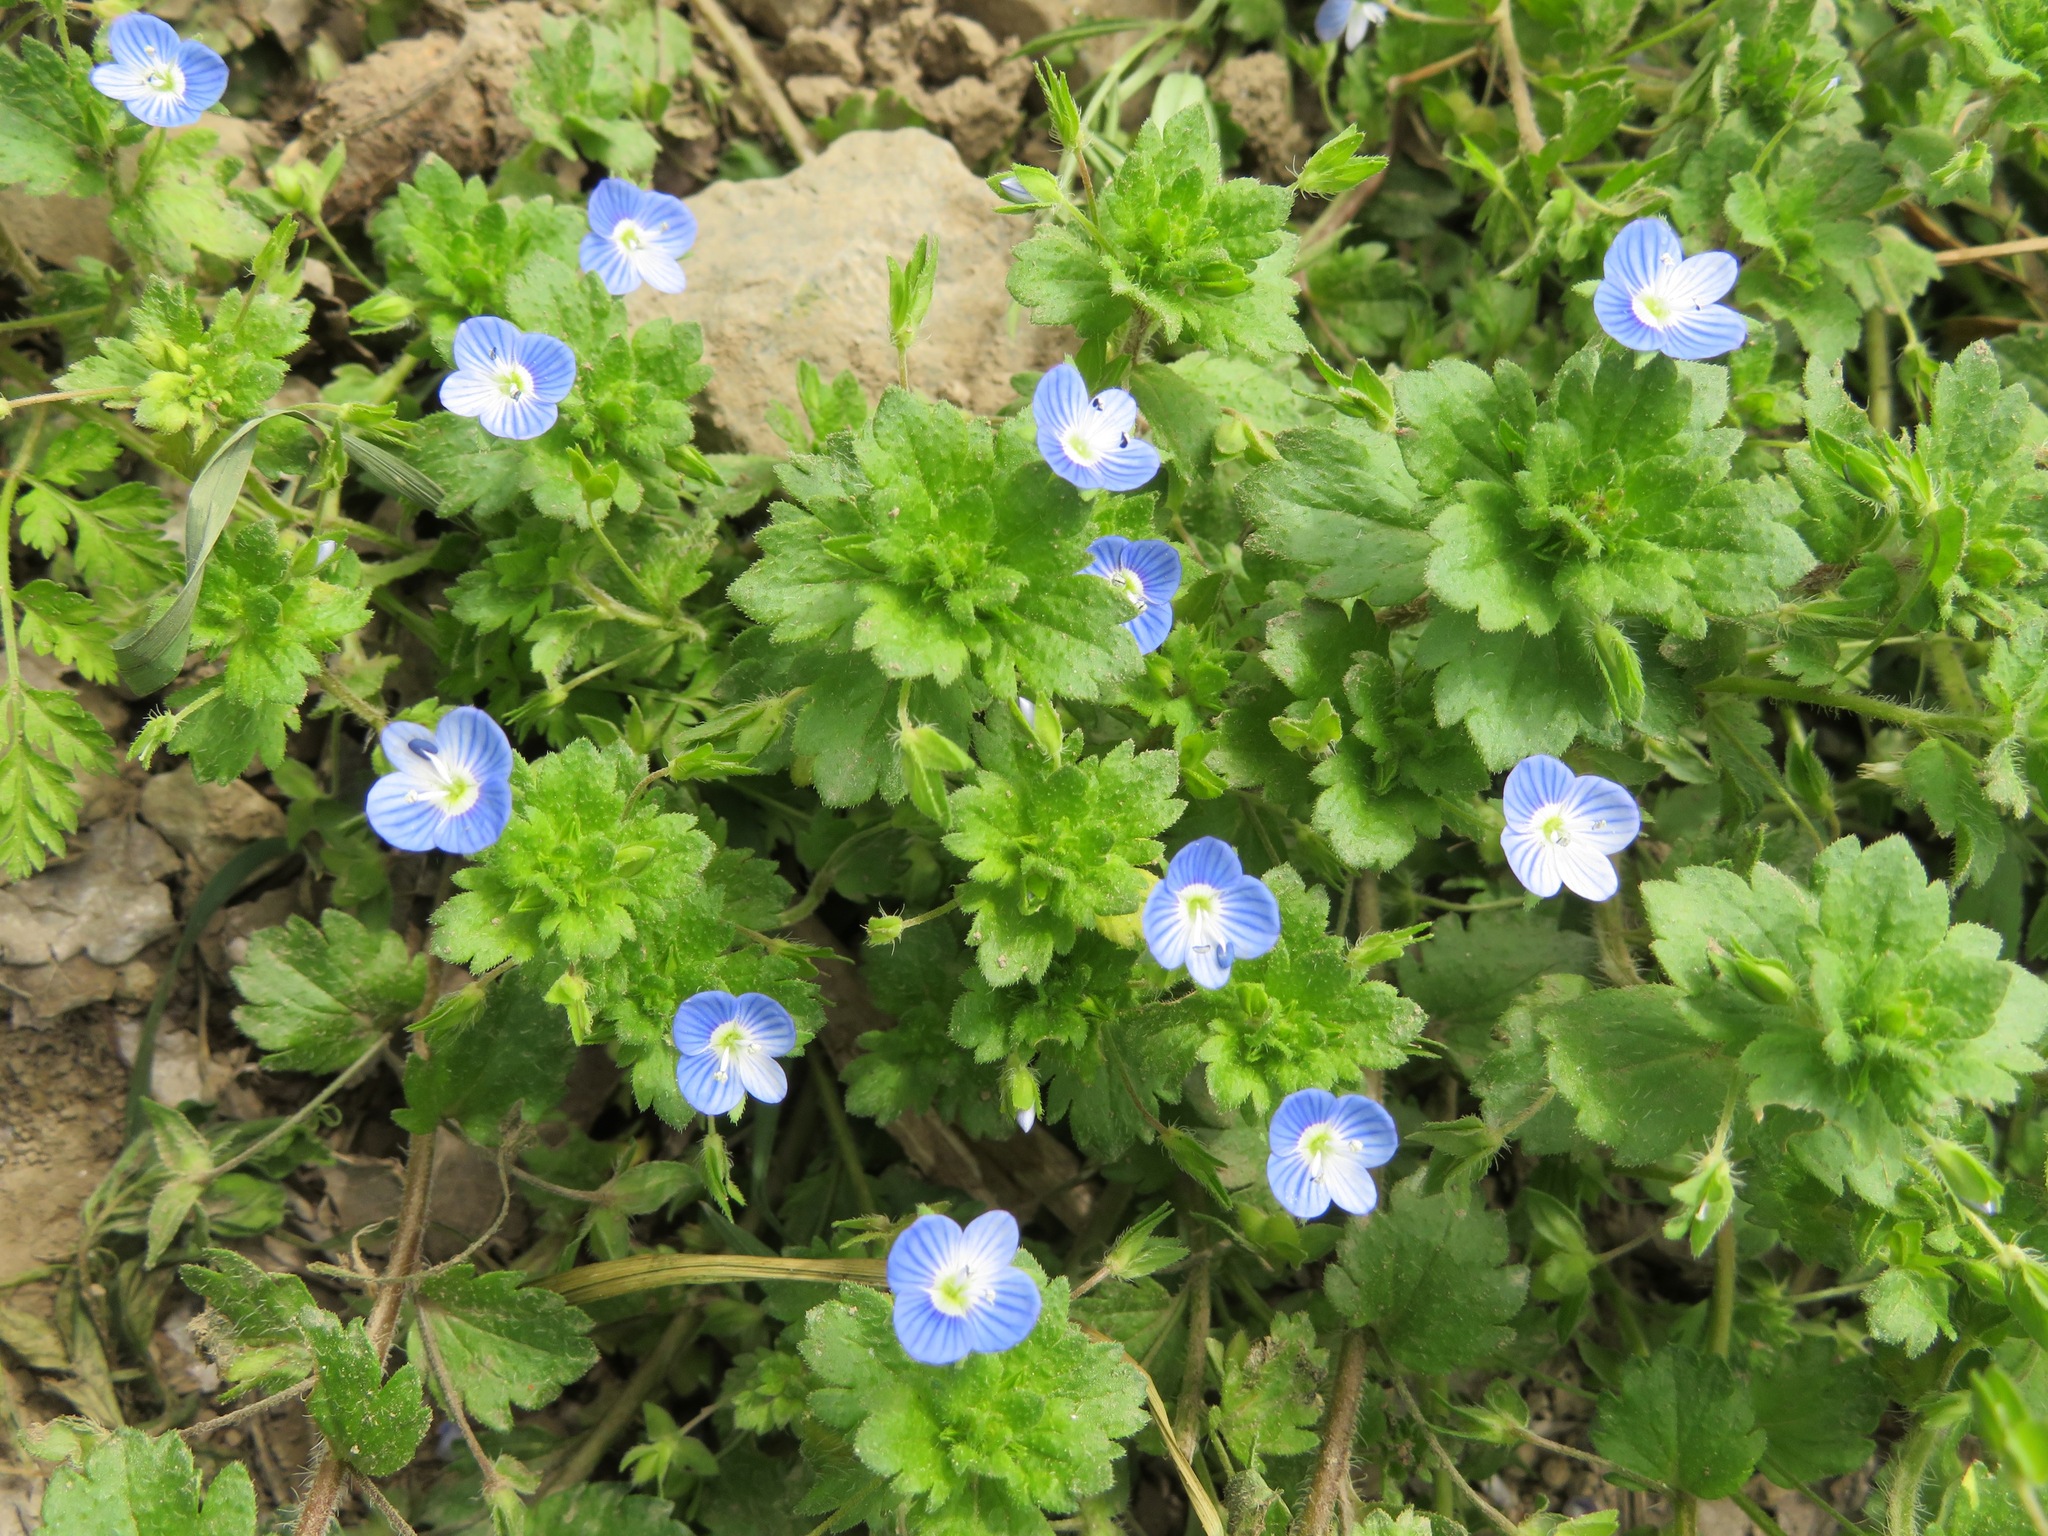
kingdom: Plantae
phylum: Tracheophyta
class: Magnoliopsida
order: Lamiales
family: Plantaginaceae
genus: Veronica
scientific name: Veronica persica
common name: Common field-speedwell
